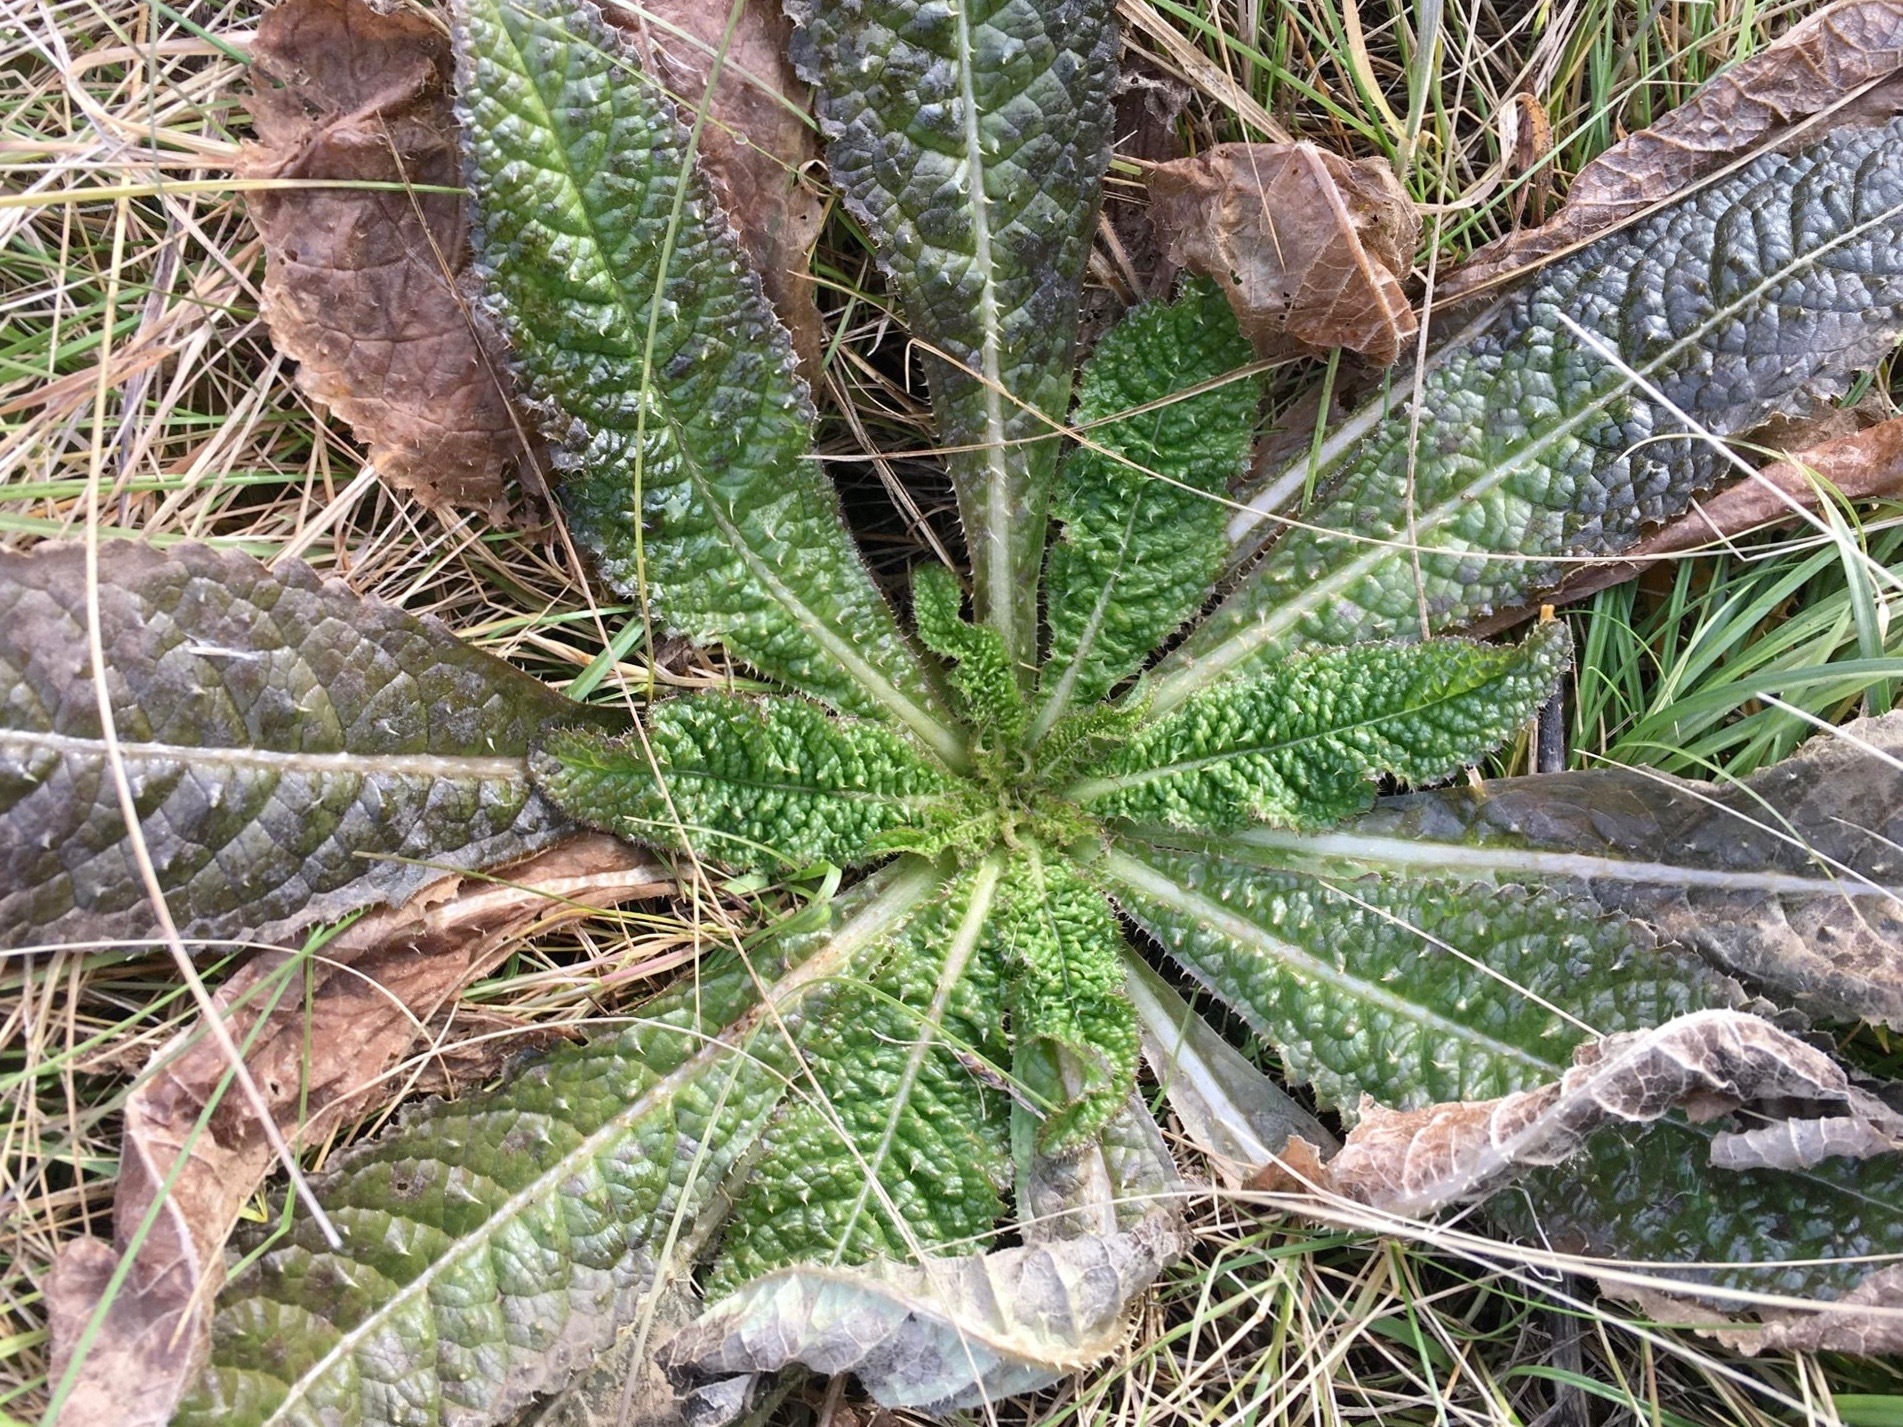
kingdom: Plantae
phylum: Tracheophyta
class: Magnoliopsida
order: Dipsacales
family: Caprifoliaceae
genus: Dipsacus
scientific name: Dipsacus fullonum
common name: Teasel
